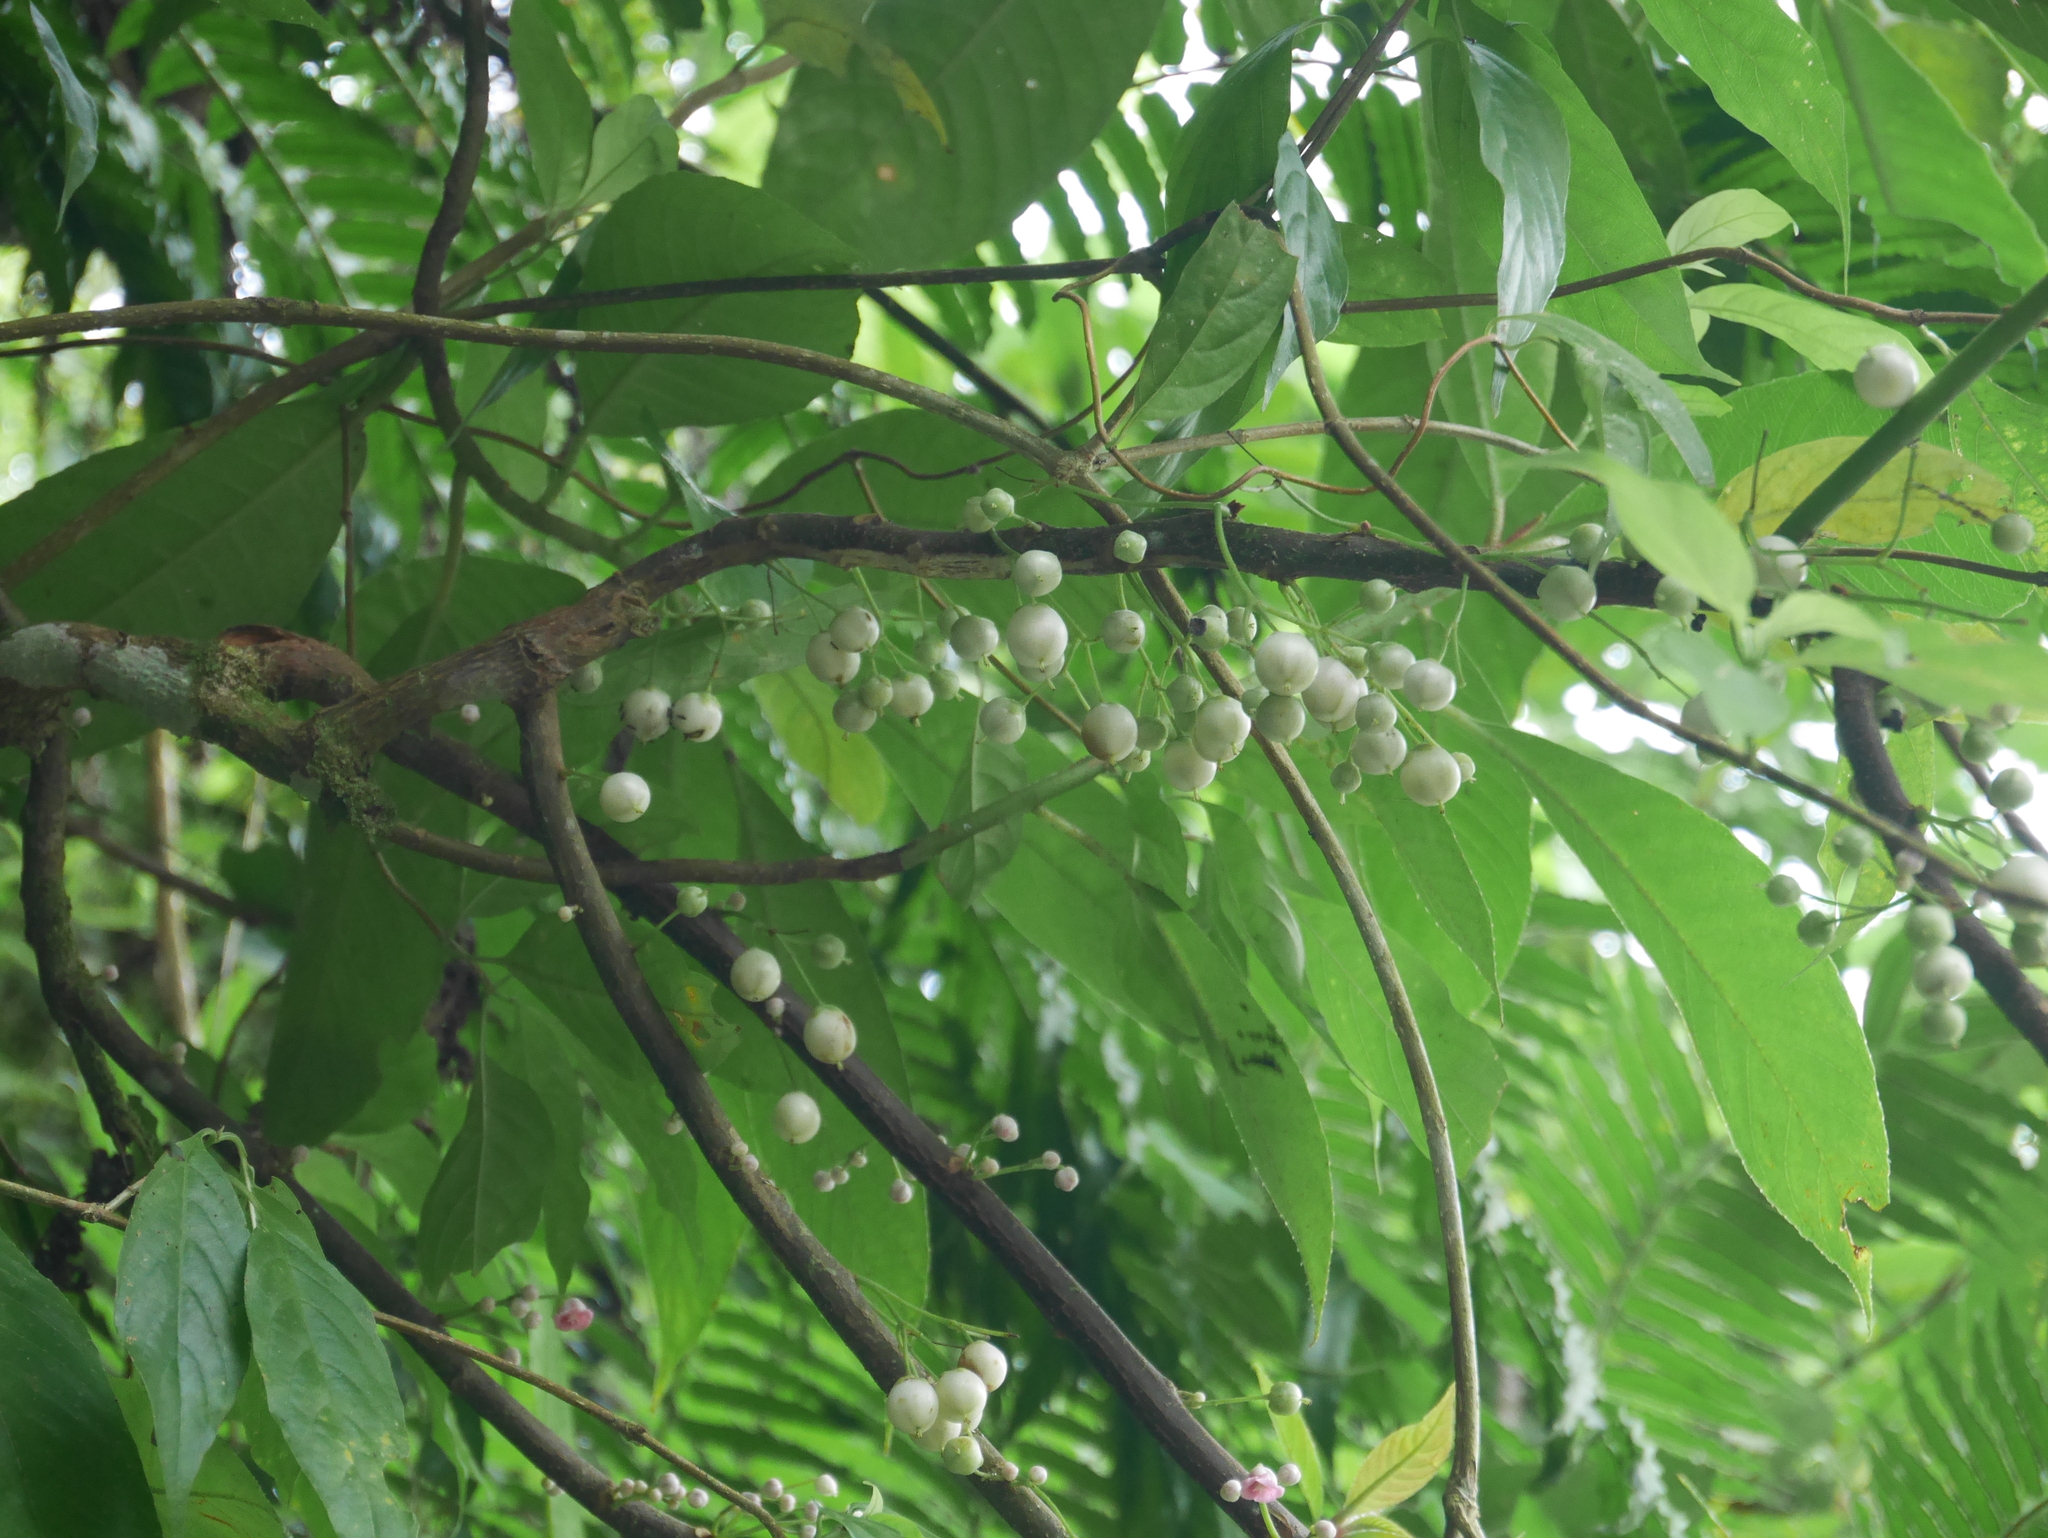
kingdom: Plantae
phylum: Tracheophyta
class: Magnoliopsida
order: Ericales
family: Actinidiaceae
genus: Saurauia
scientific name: Saurauia tristyla
